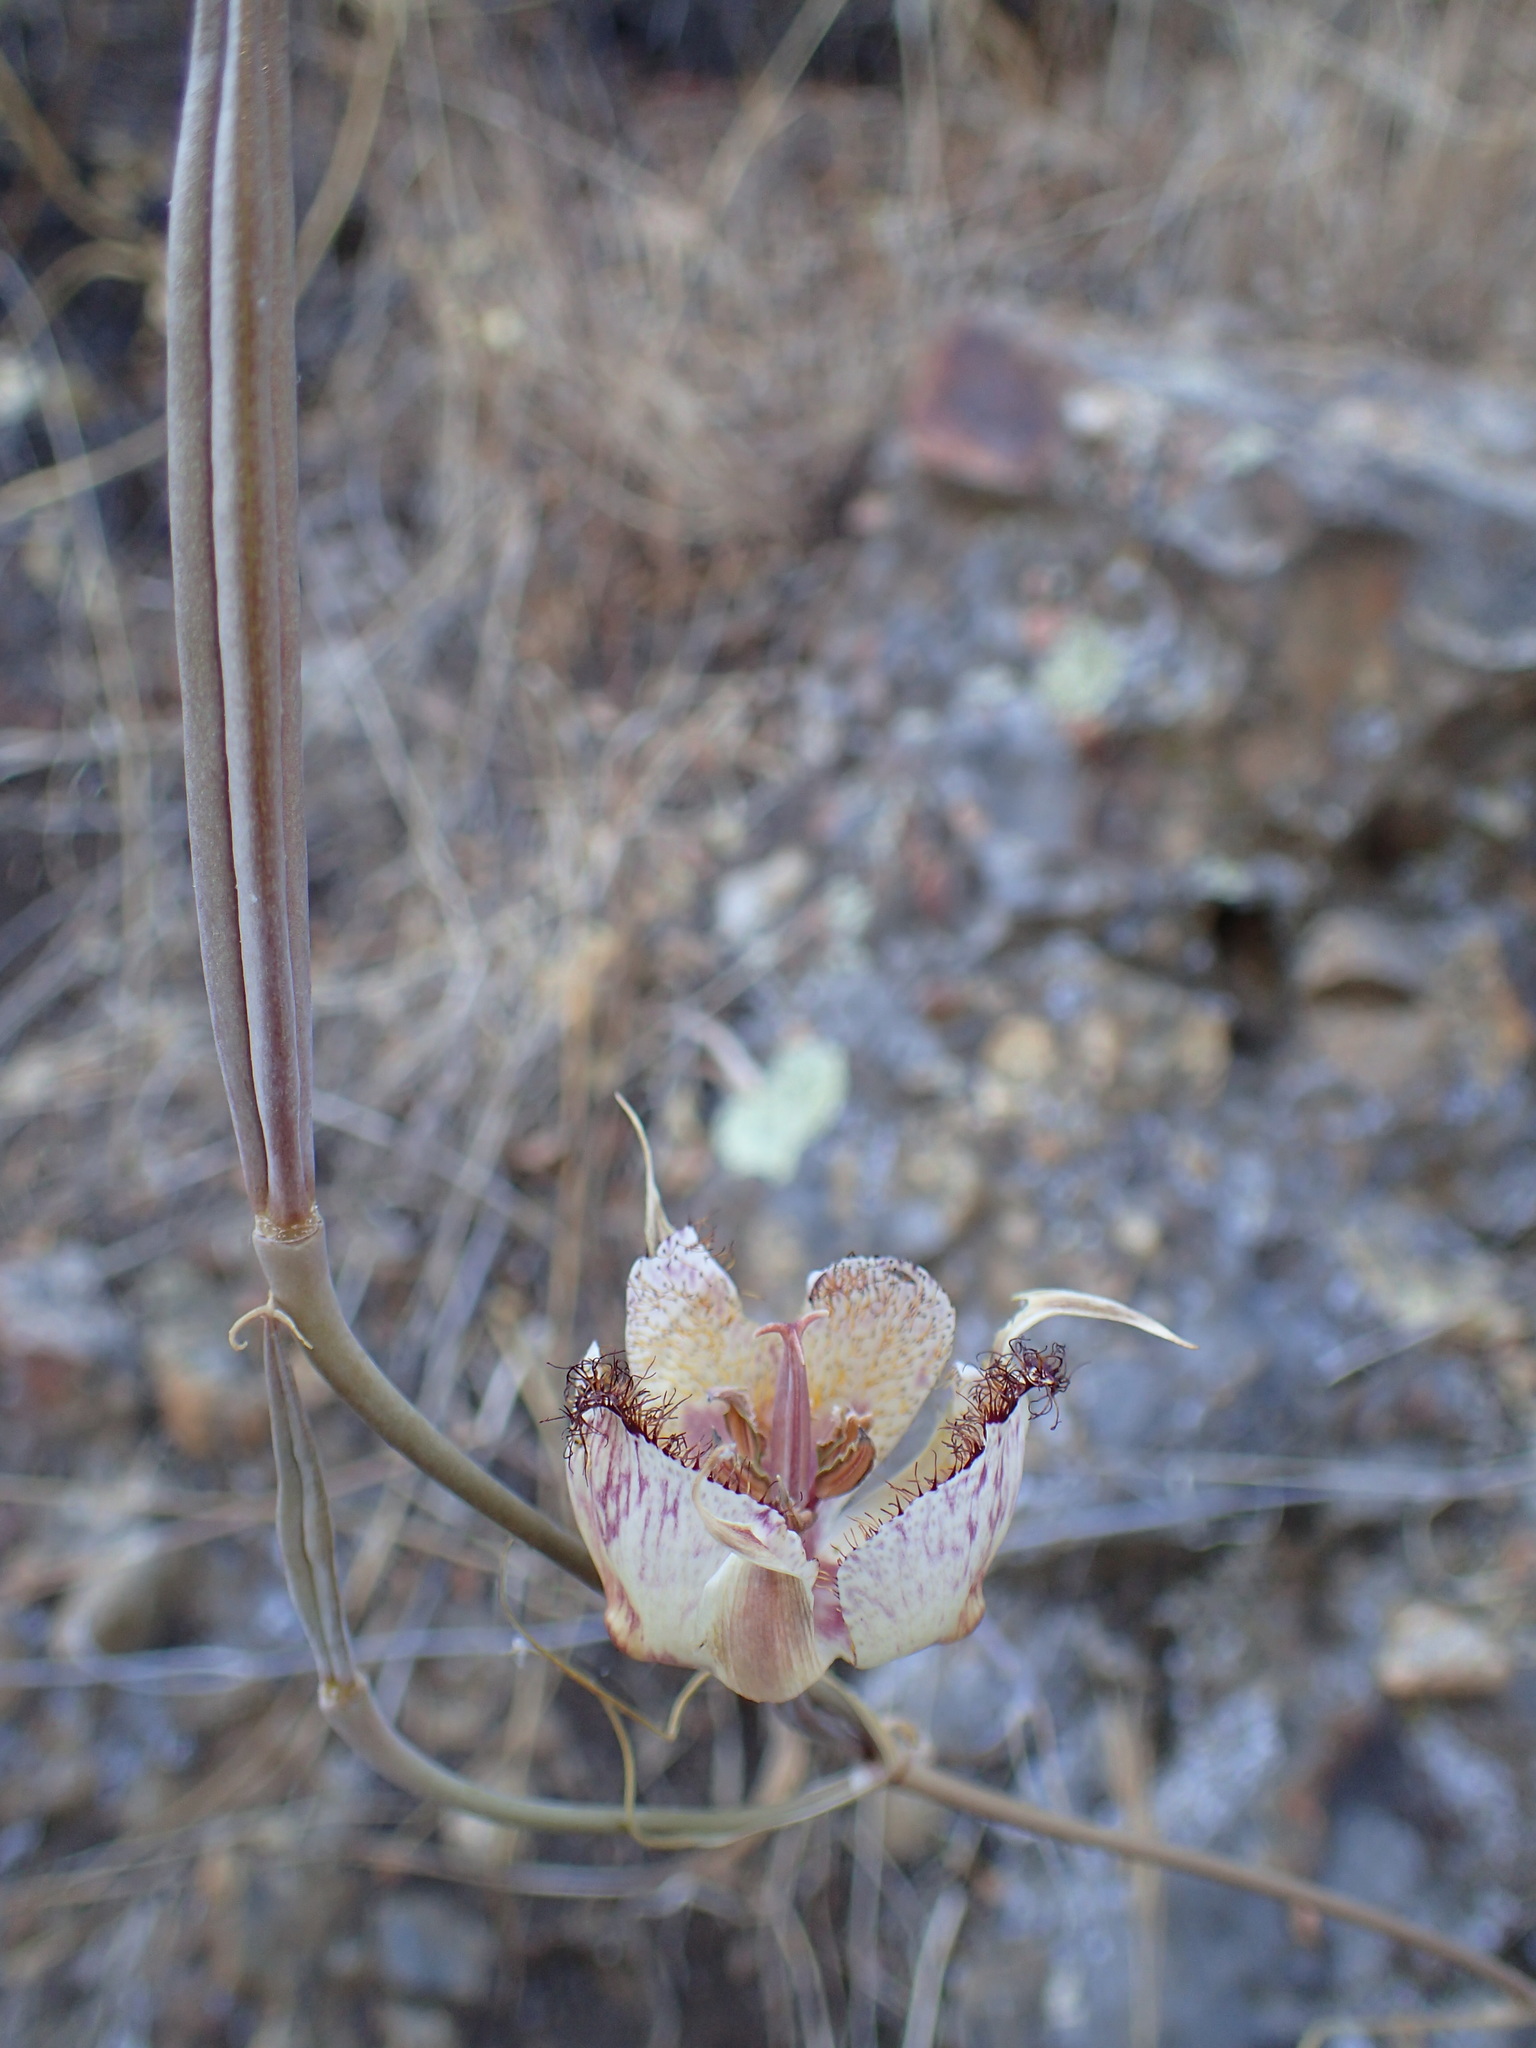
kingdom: Plantae
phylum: Tracheophyta
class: Liliopsida
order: Liliales
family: Liliaceae
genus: Calochortus
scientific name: Calochortus fimbriatus
